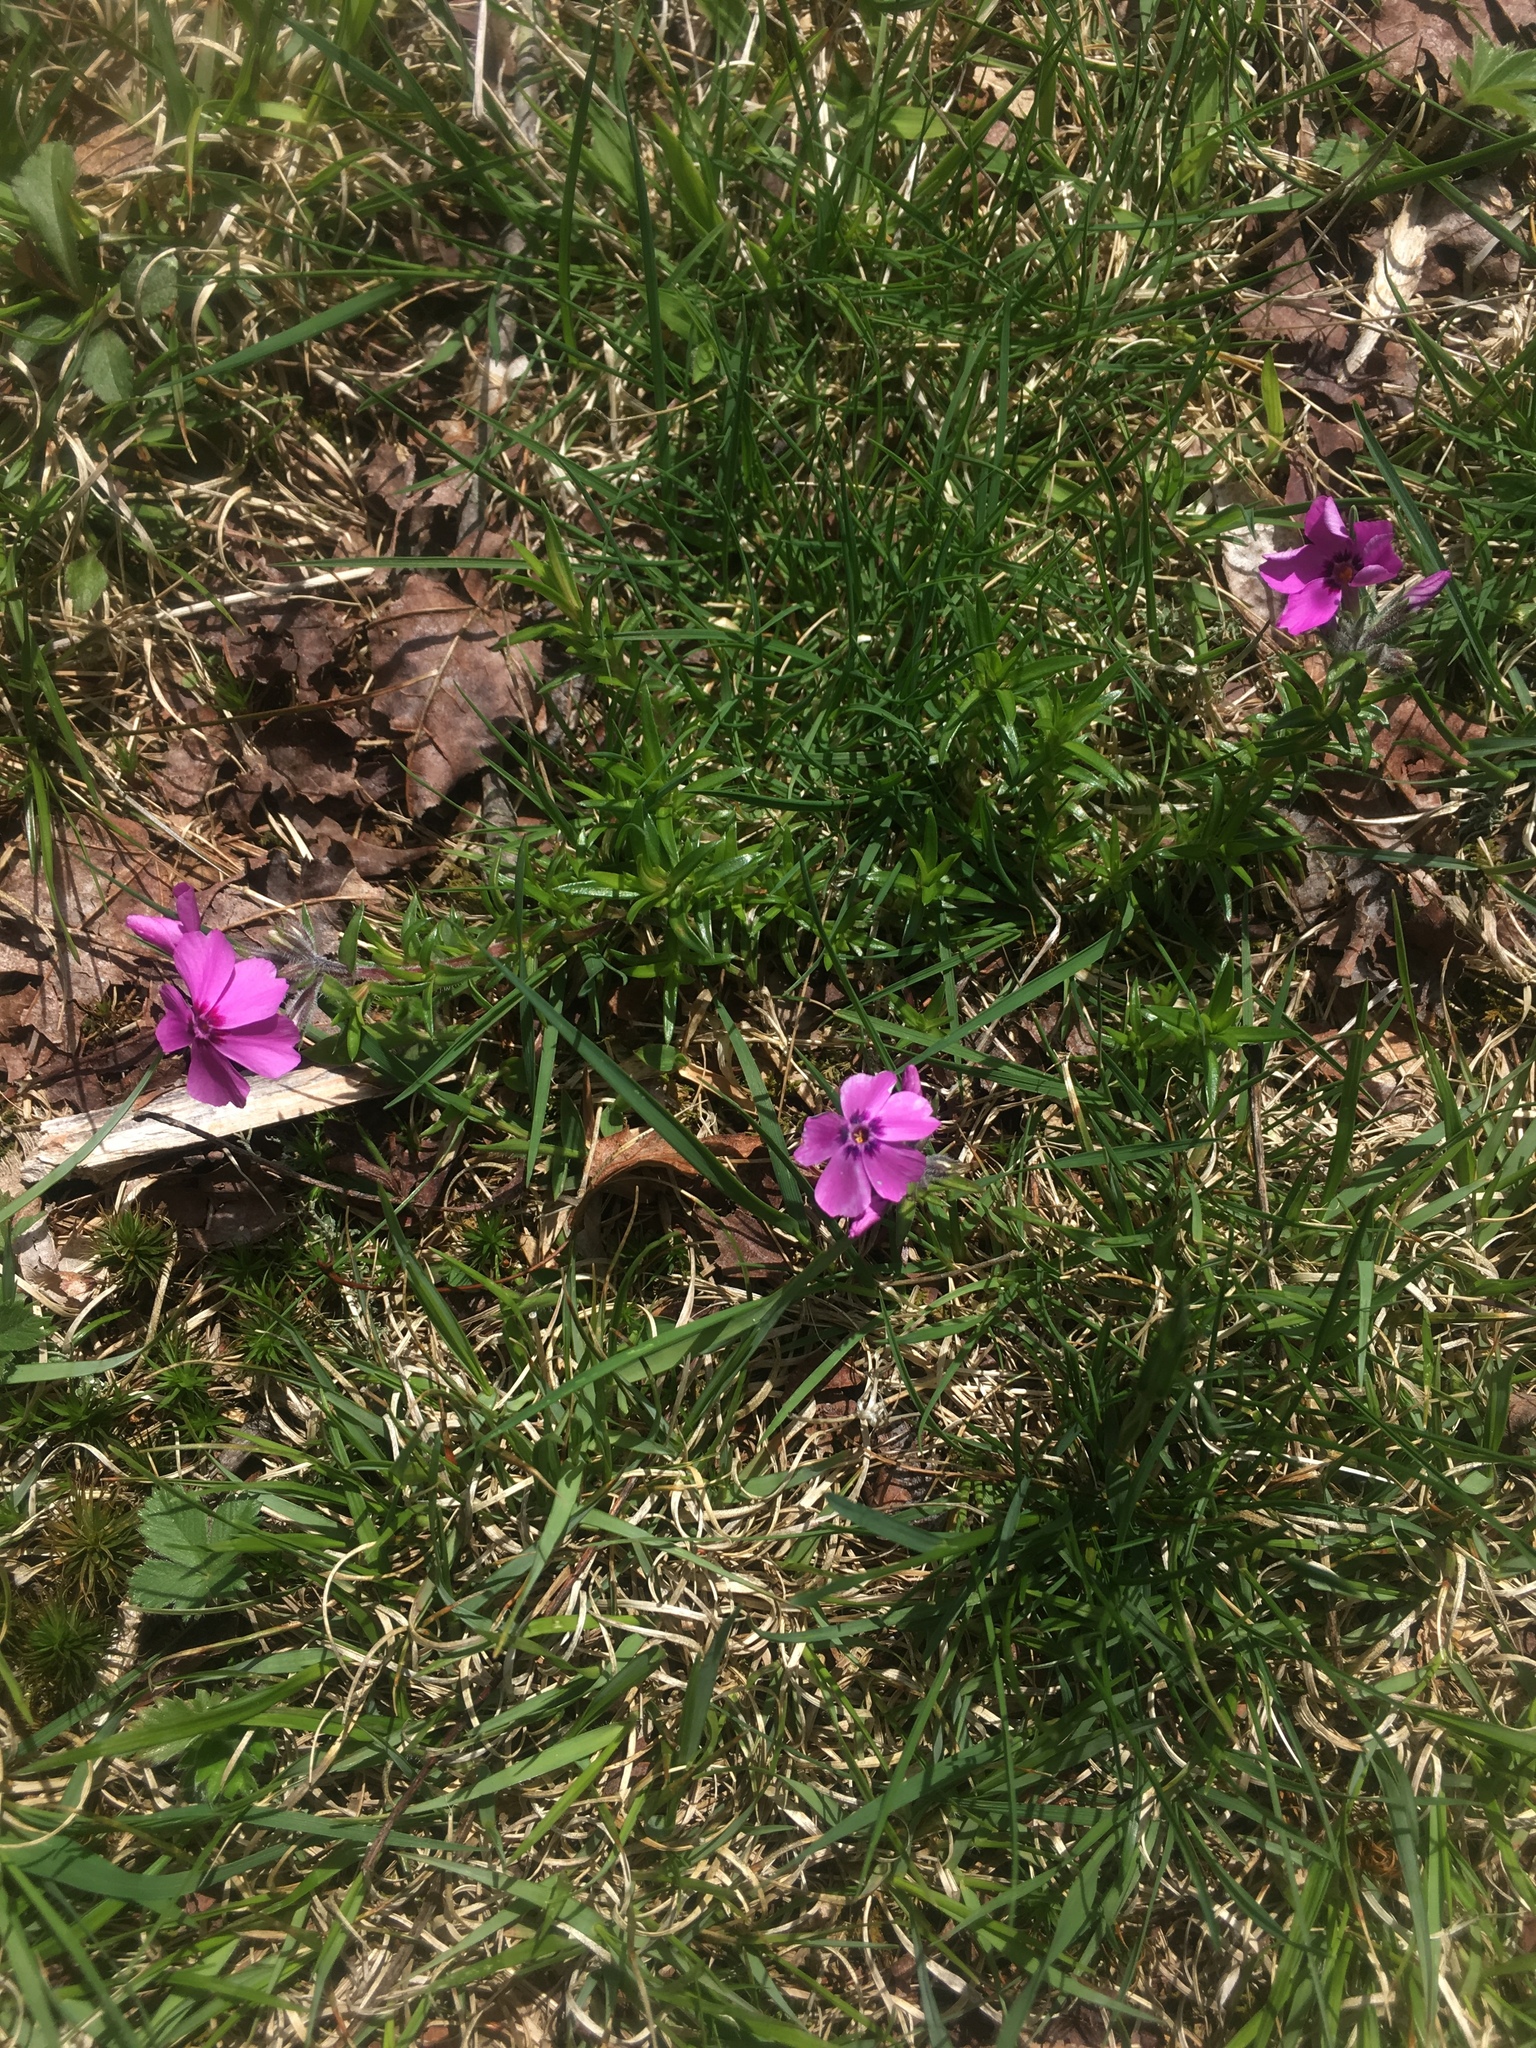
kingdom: Plantae
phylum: Tracheophyta
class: Magnoliopsida
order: Ericales
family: Polemoniaceae
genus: Phlox
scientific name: Phlox subulata
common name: Moss phlox
